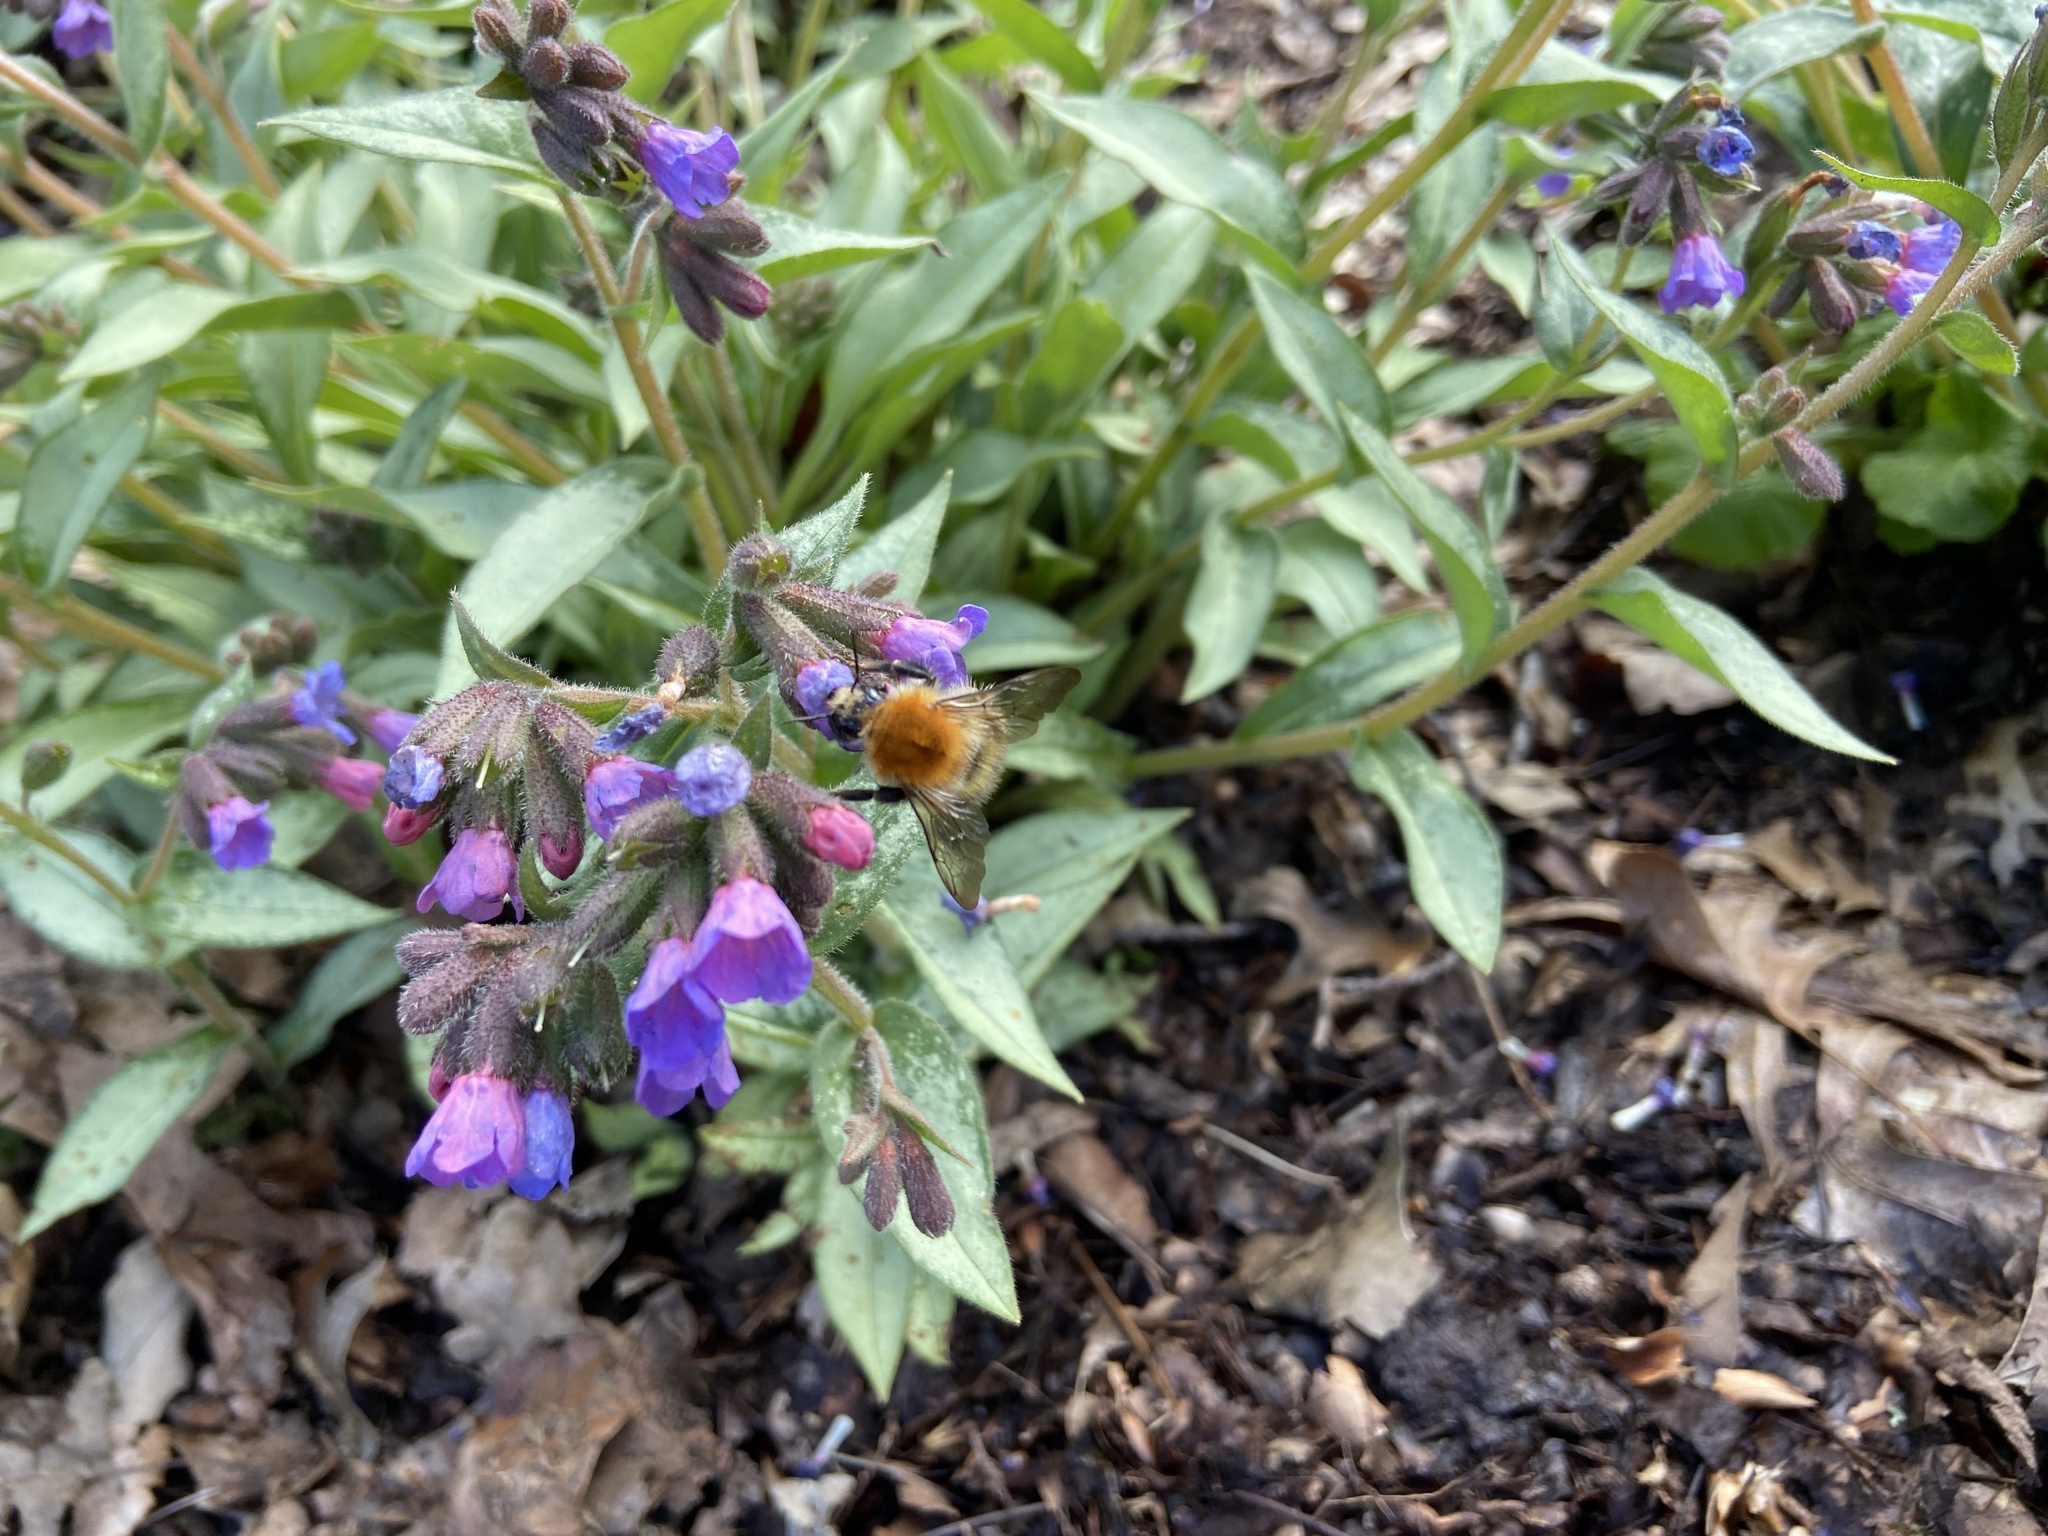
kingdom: Animalia
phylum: Arthropoda
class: Insecta
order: Hymenoptera
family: Apidae
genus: Bombus
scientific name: Bombus pascuorum
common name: Common carder bee
